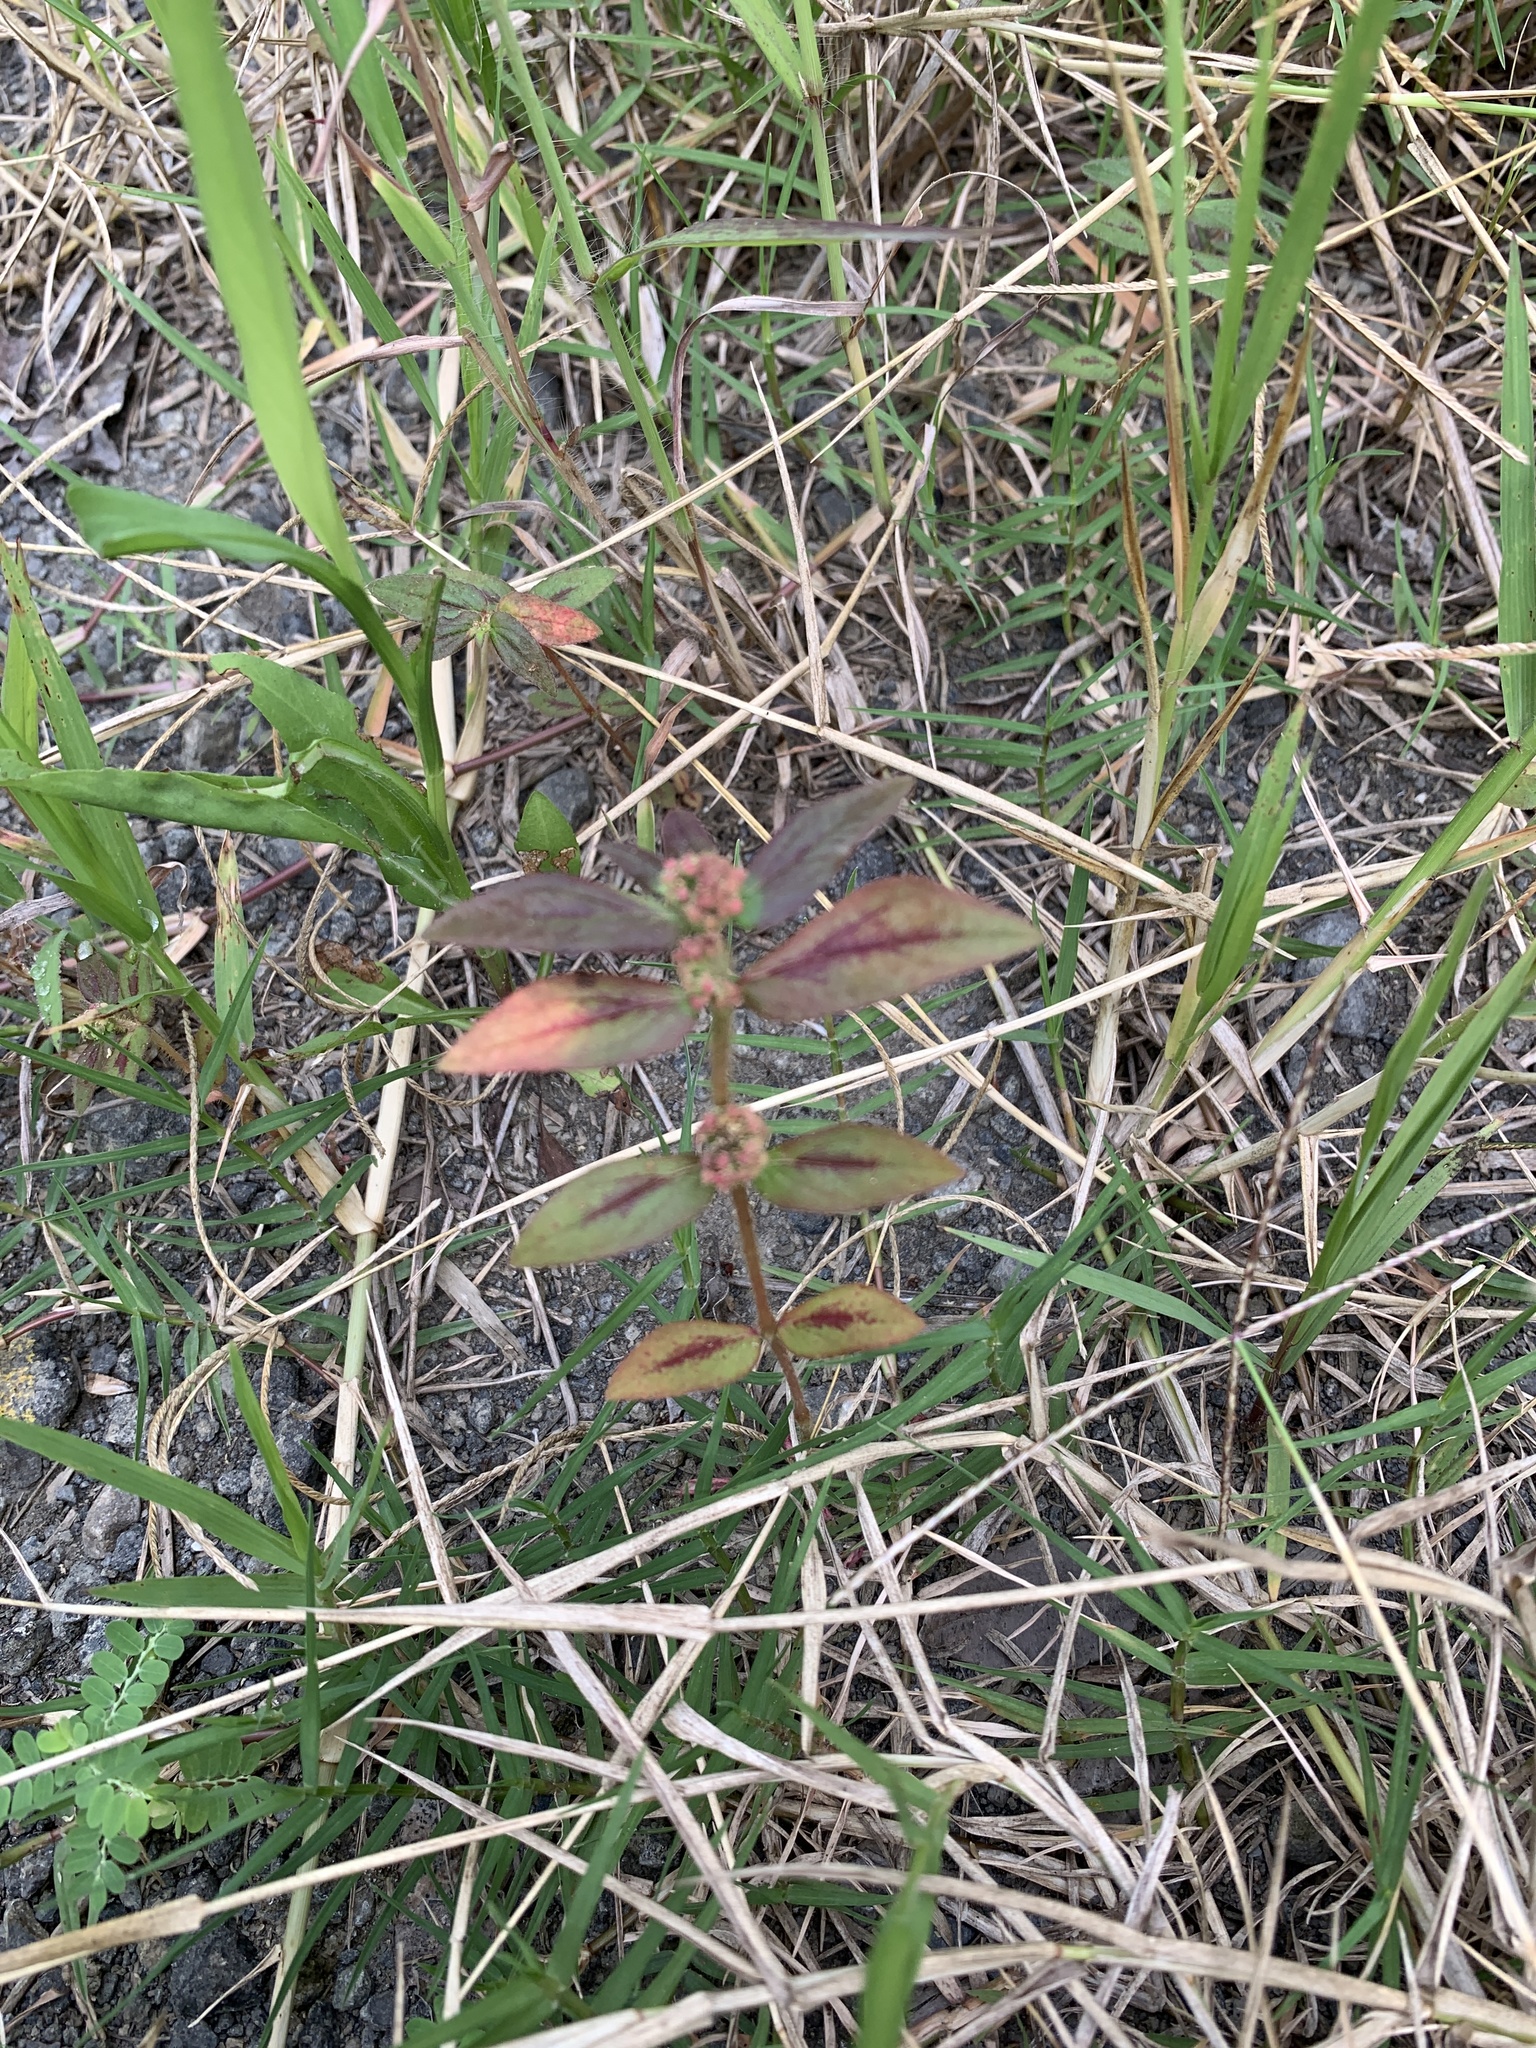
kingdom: Plantae
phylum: Tracheophyta
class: Magnoliopsida
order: Malpighiales
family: Euphorbiaceae
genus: Euphorbia
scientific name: Euphorbia hirta
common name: Pillpod sandmat
